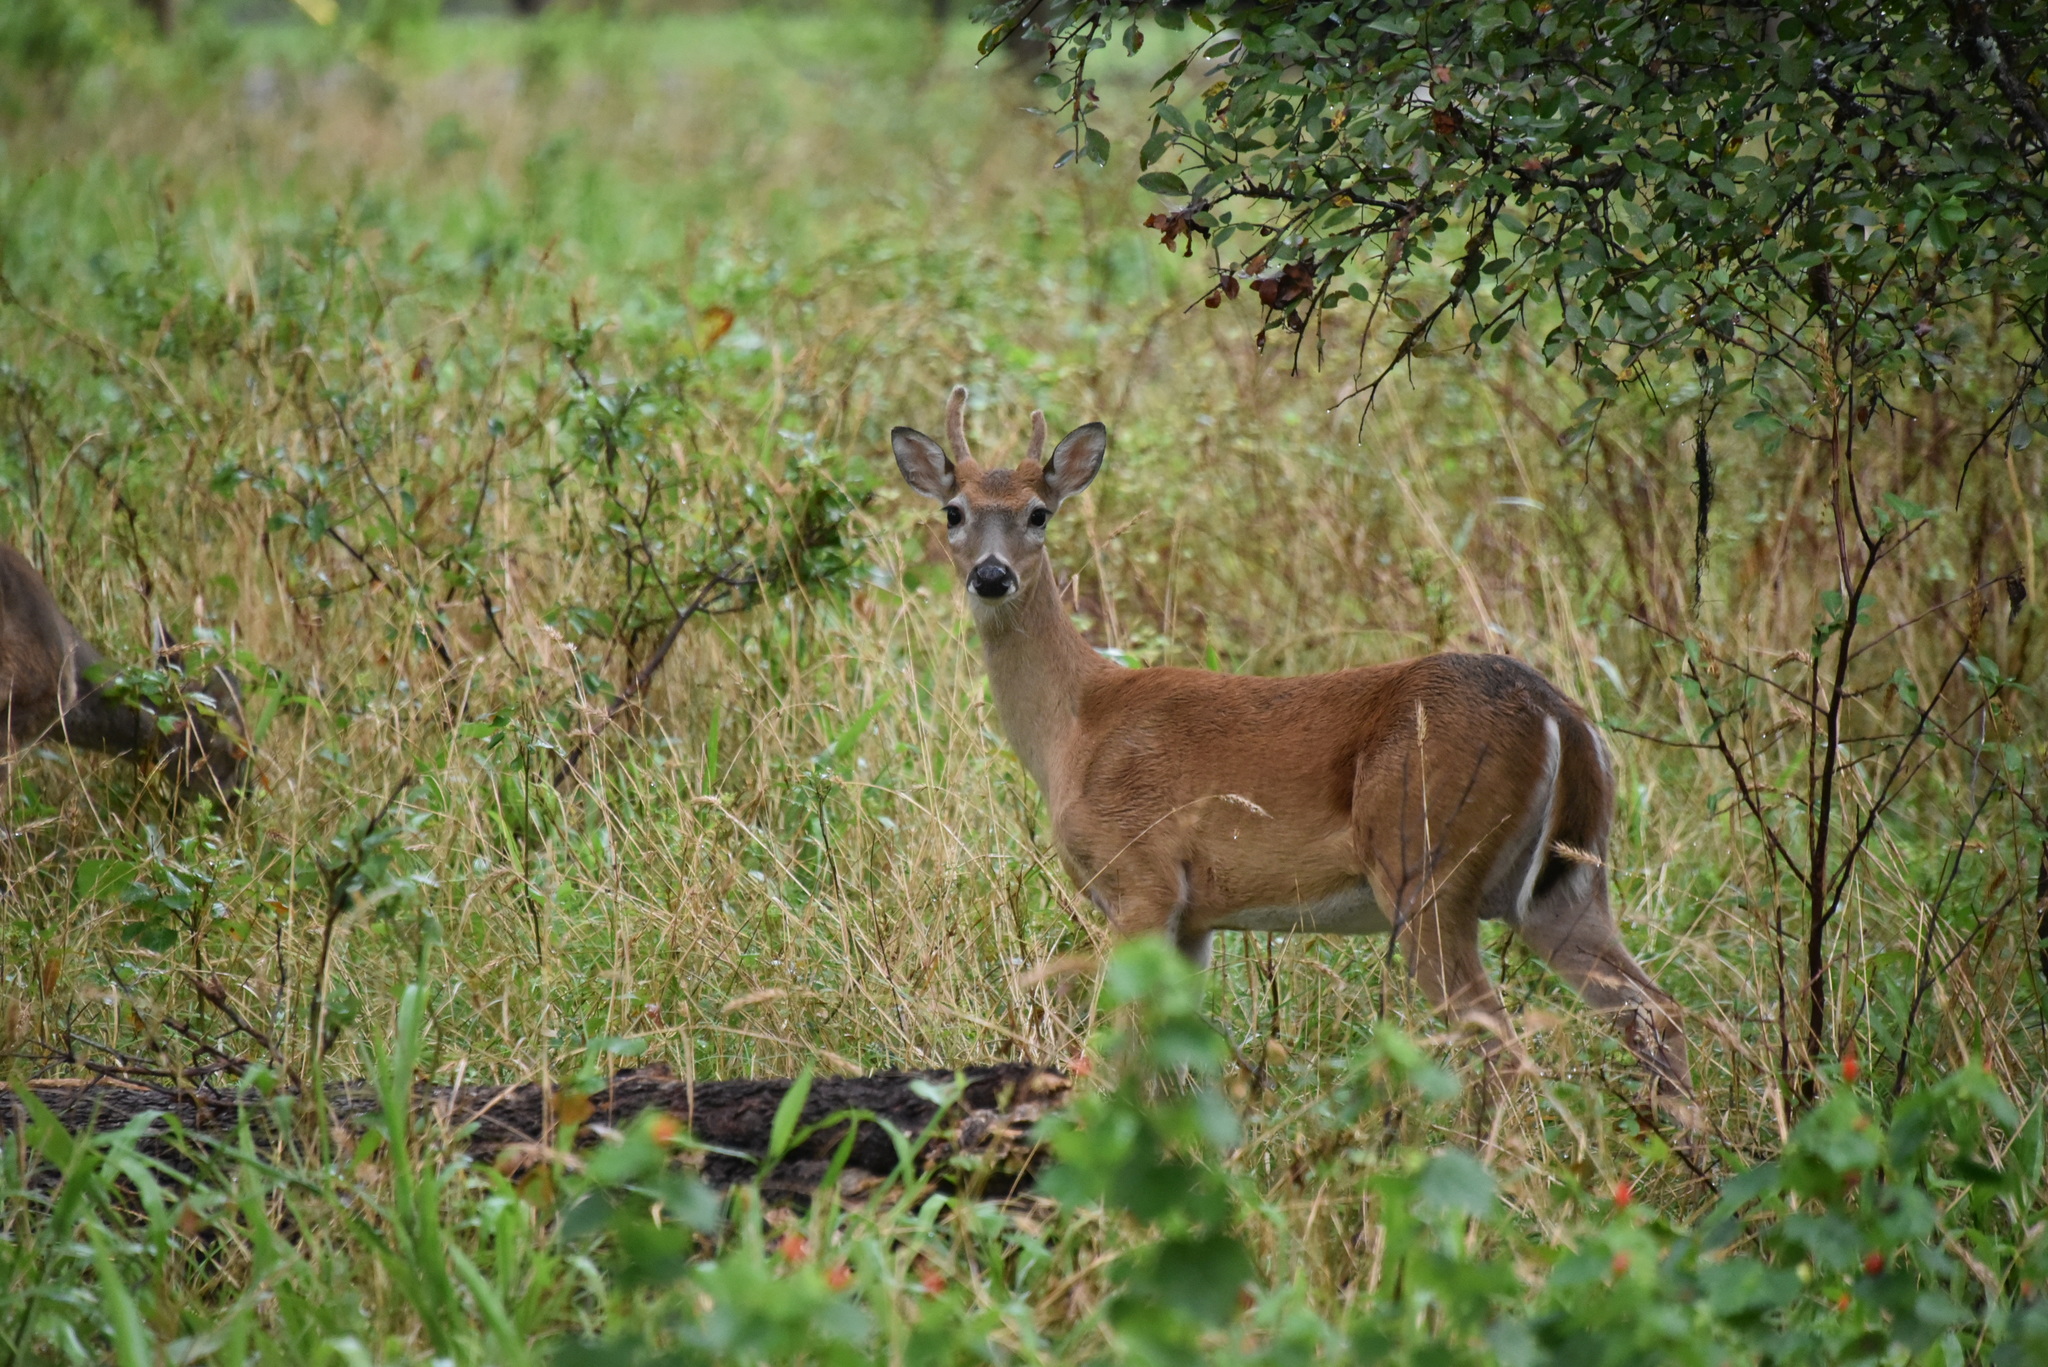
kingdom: Animalia
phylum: Chordata
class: Mammalia
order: Artiodactyla
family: Cervidae
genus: Odocoileus
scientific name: Odocoileus virginianus
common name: White-tailed deer
